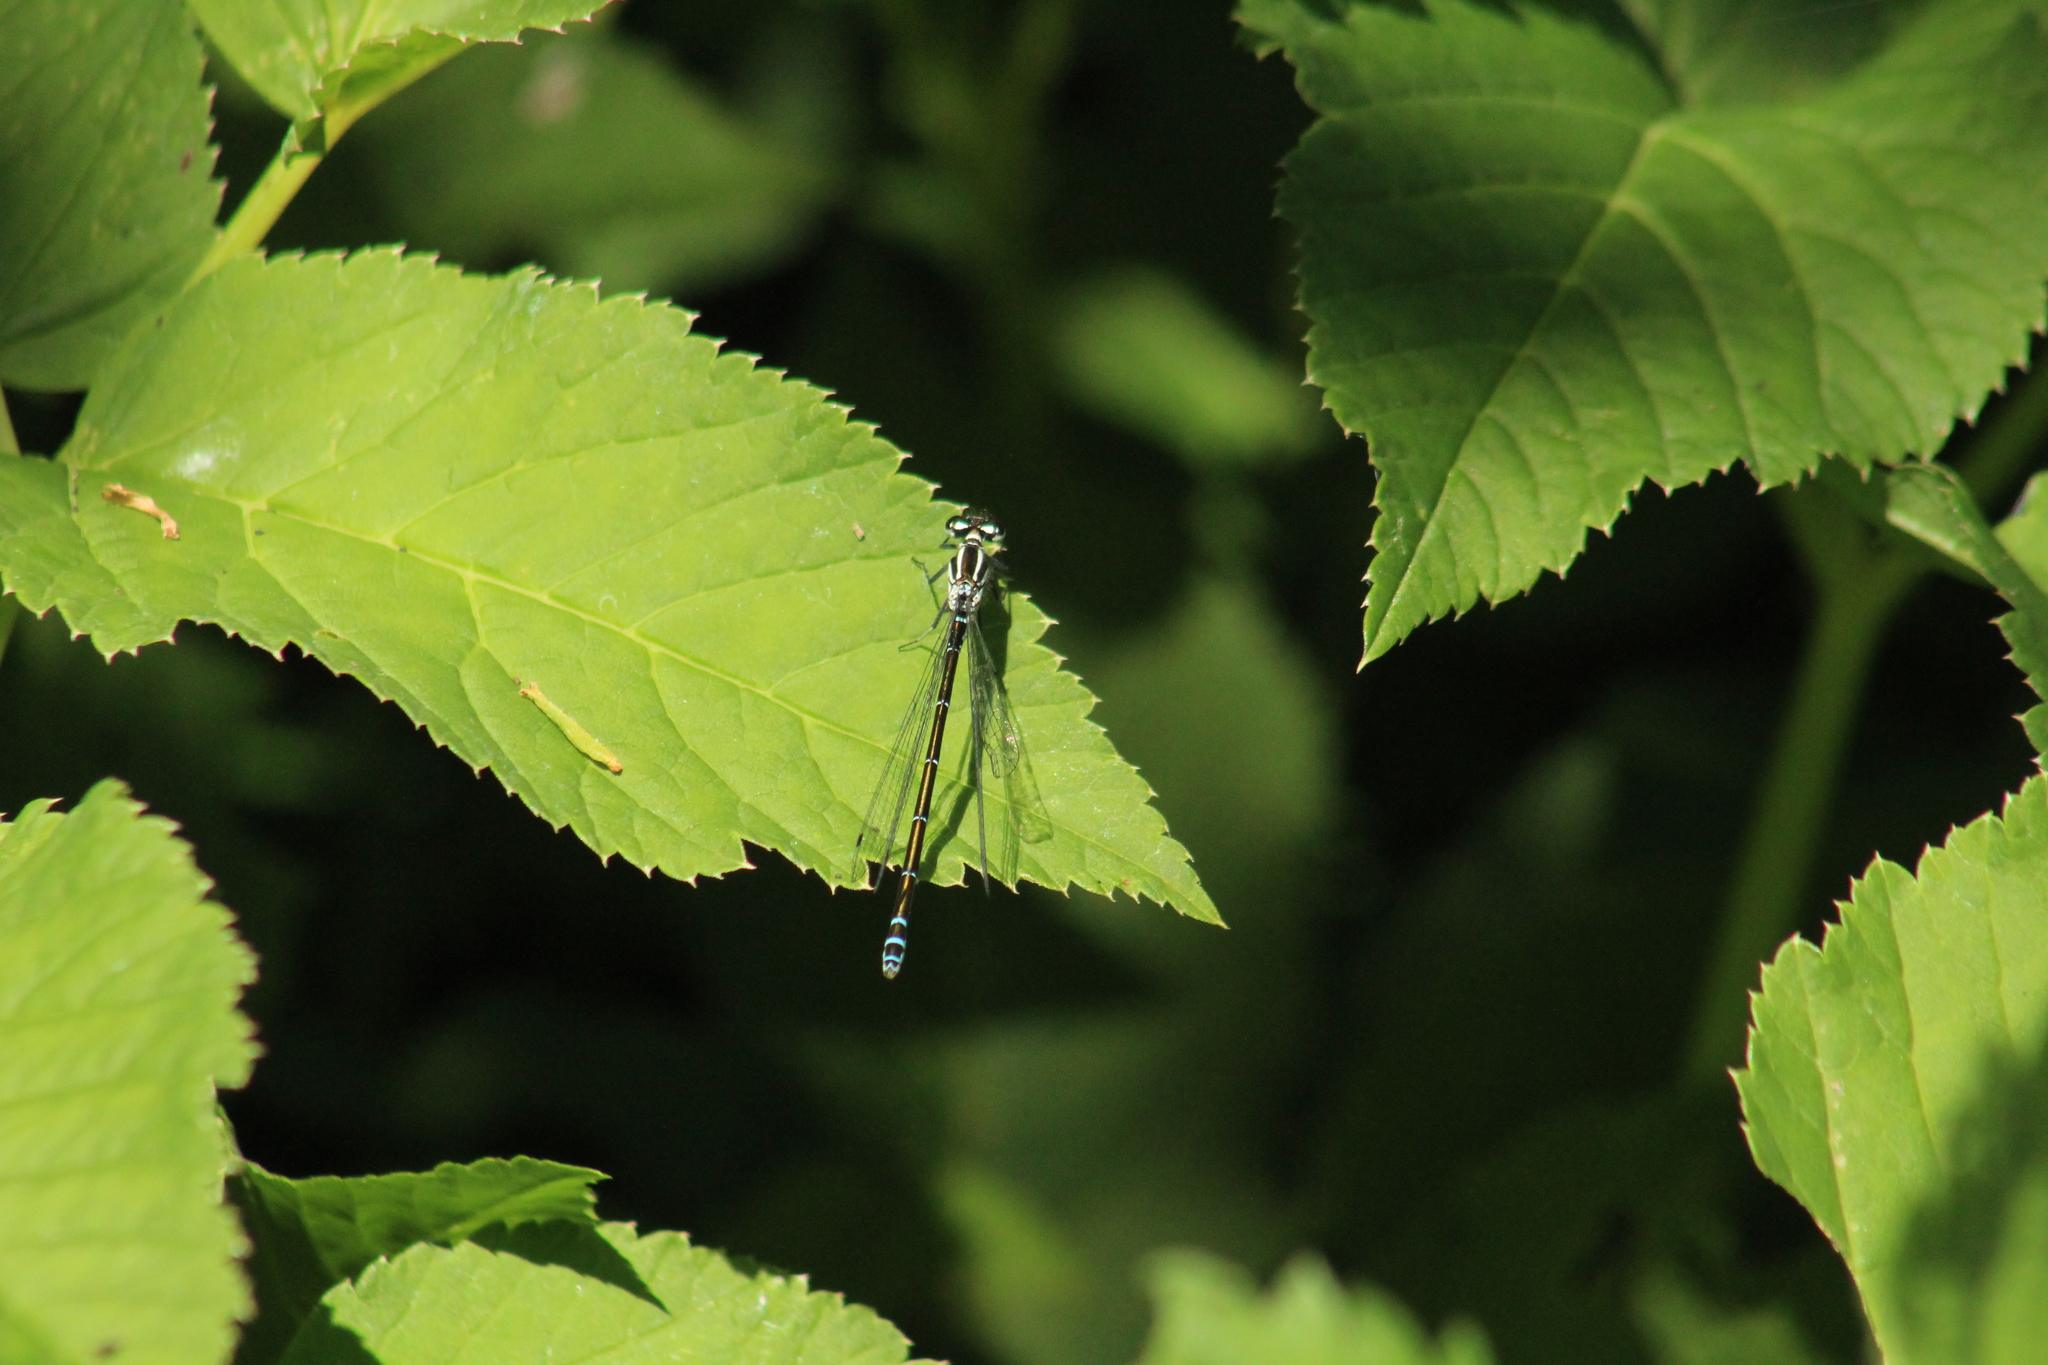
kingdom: Animalia
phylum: Arthropoda
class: Insecta
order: Odonata
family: Coenagrionidae
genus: Coenagrion
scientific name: Coenagrion puella
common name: Azure damselfly
